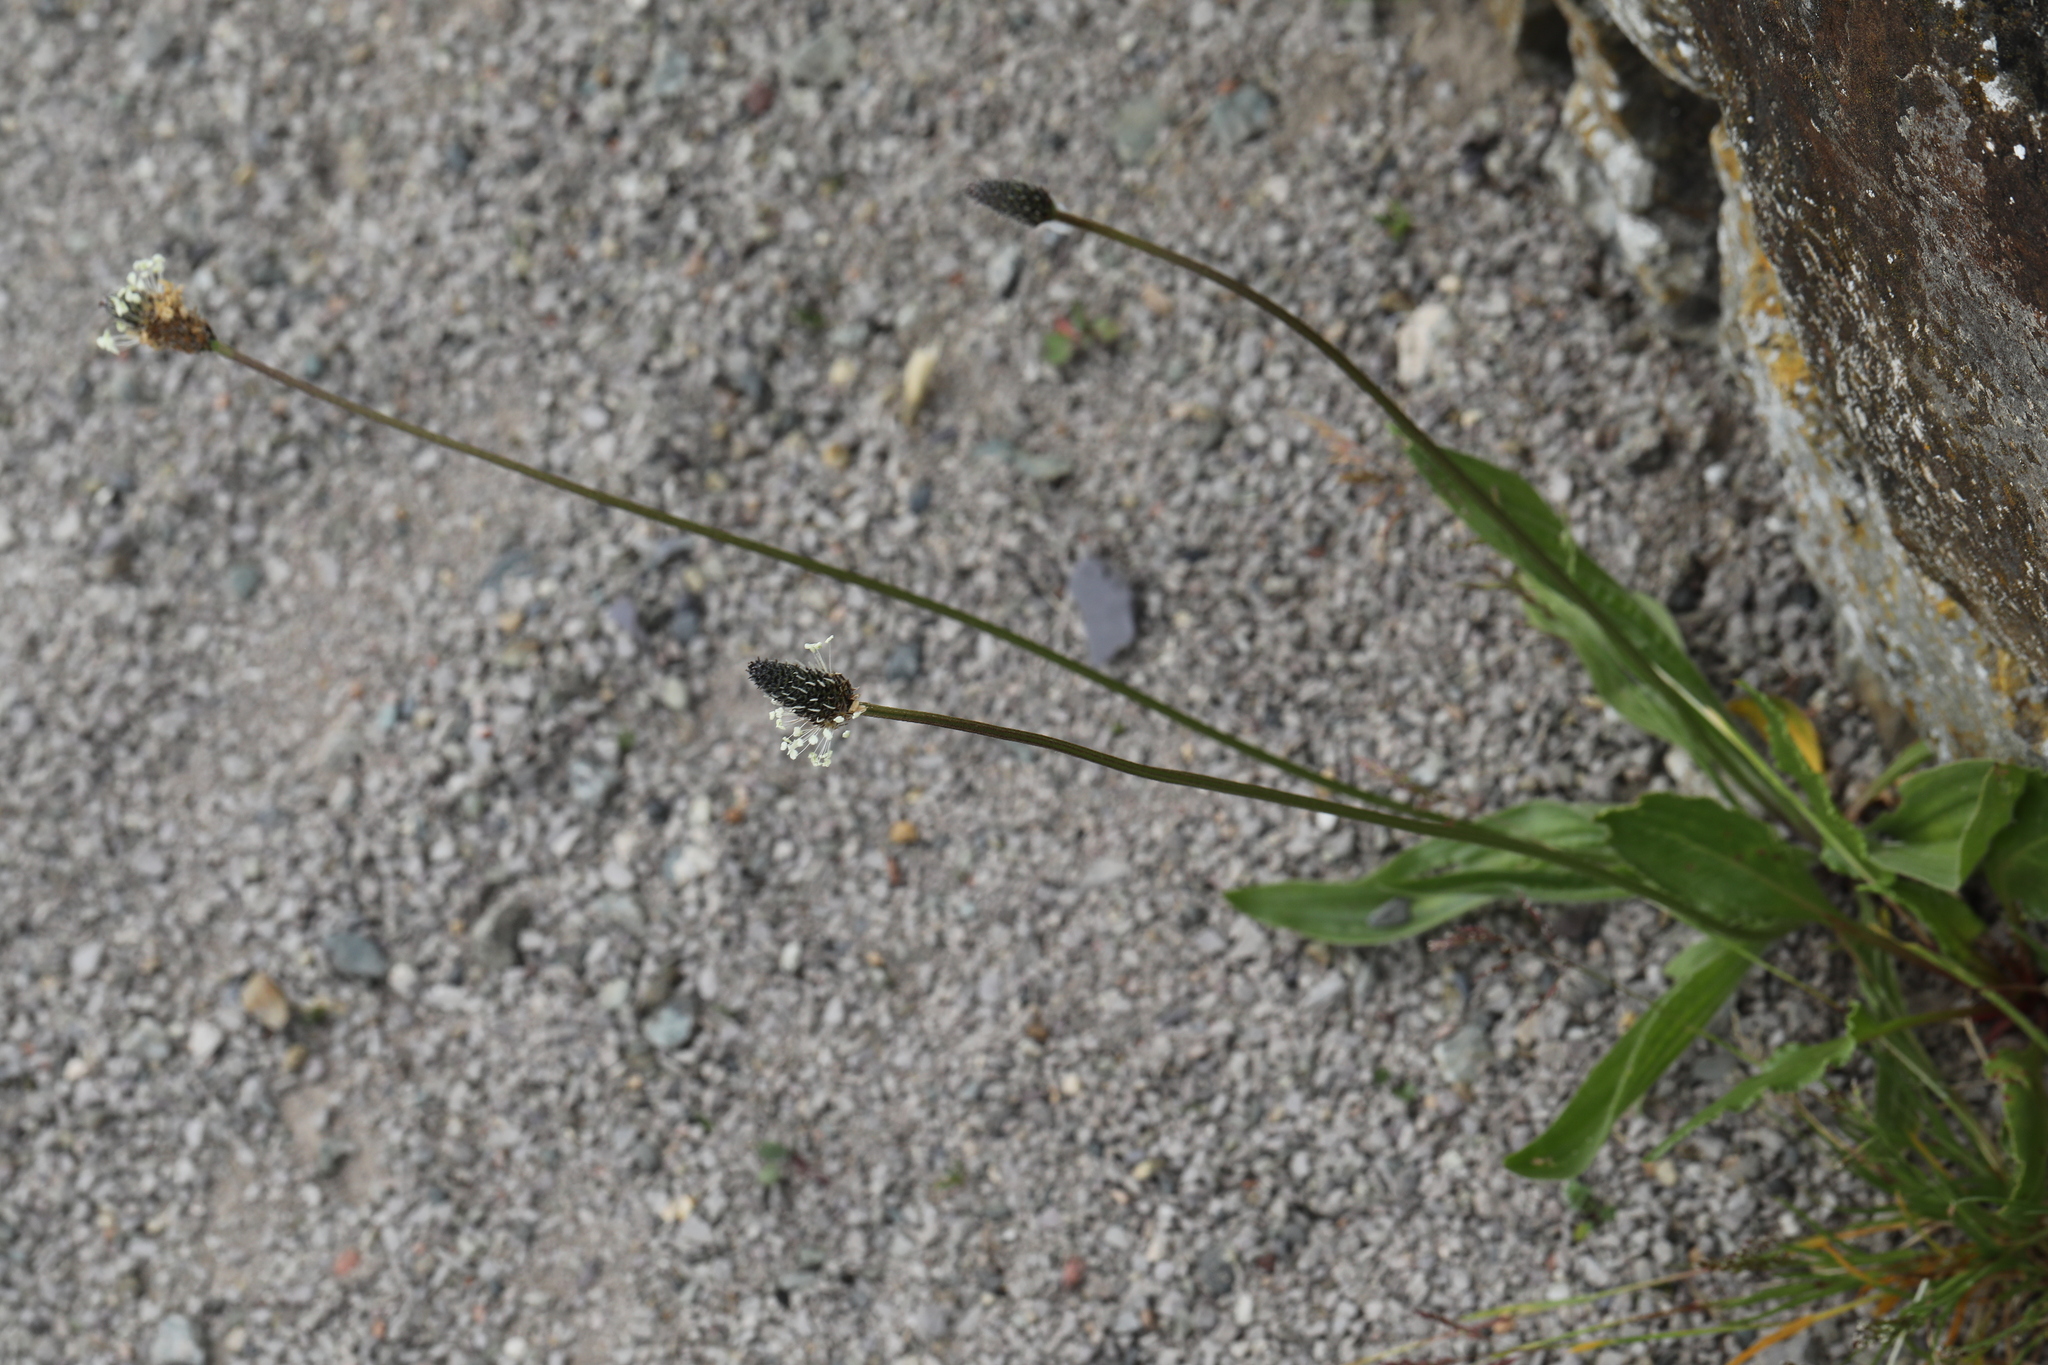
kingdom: Plantae
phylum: Tracheophyta
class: Magnoliopsida
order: Lamiales
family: Plantaginaceae
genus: Plantago
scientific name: Plantago lanceolata
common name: Ribwort plantain
